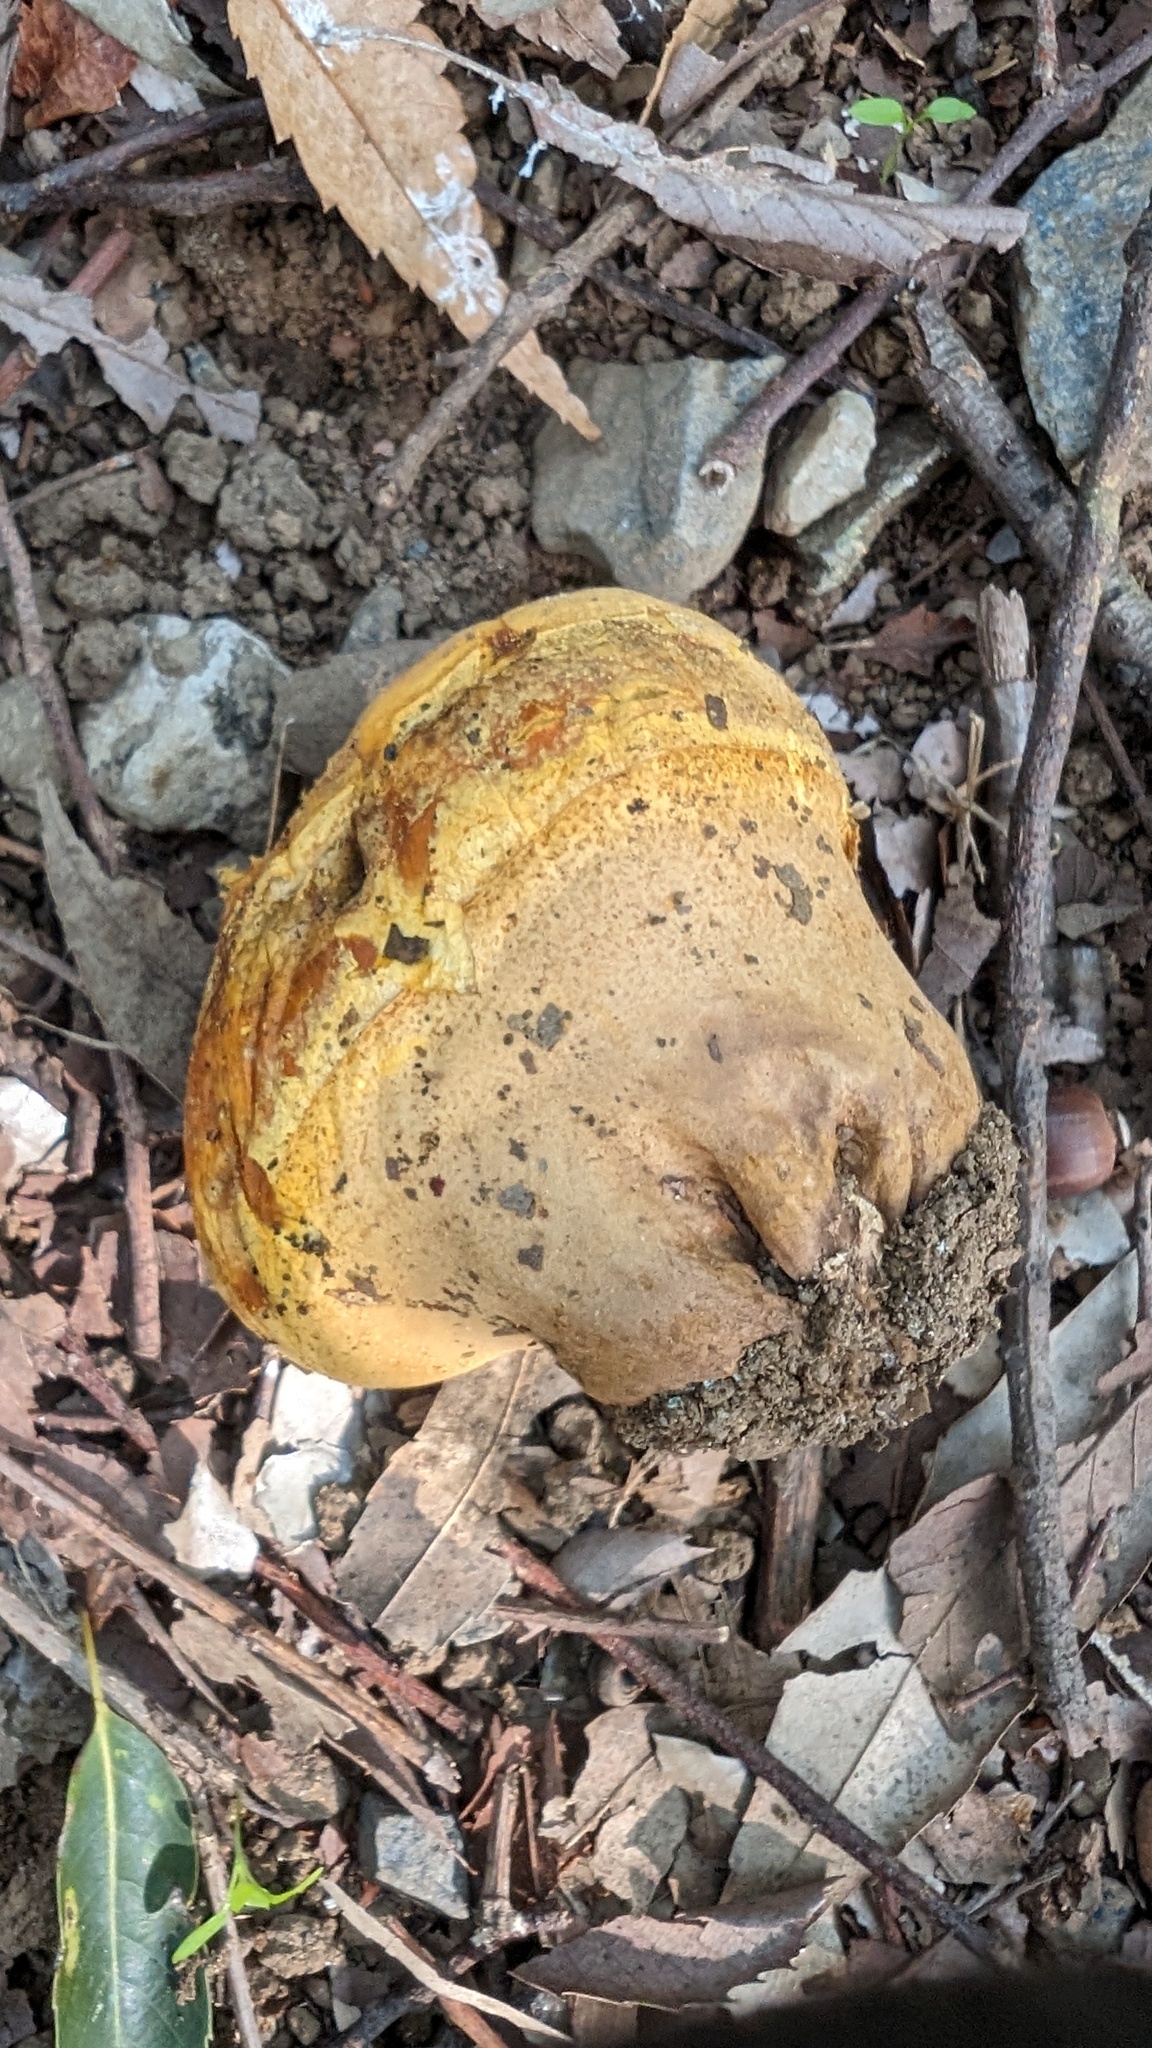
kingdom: Fungi
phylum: Basidiomycota
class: Agaricomycetes
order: Agaricales
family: Lycoperdaceae
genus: Calvatia
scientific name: Calvatia rugosa
